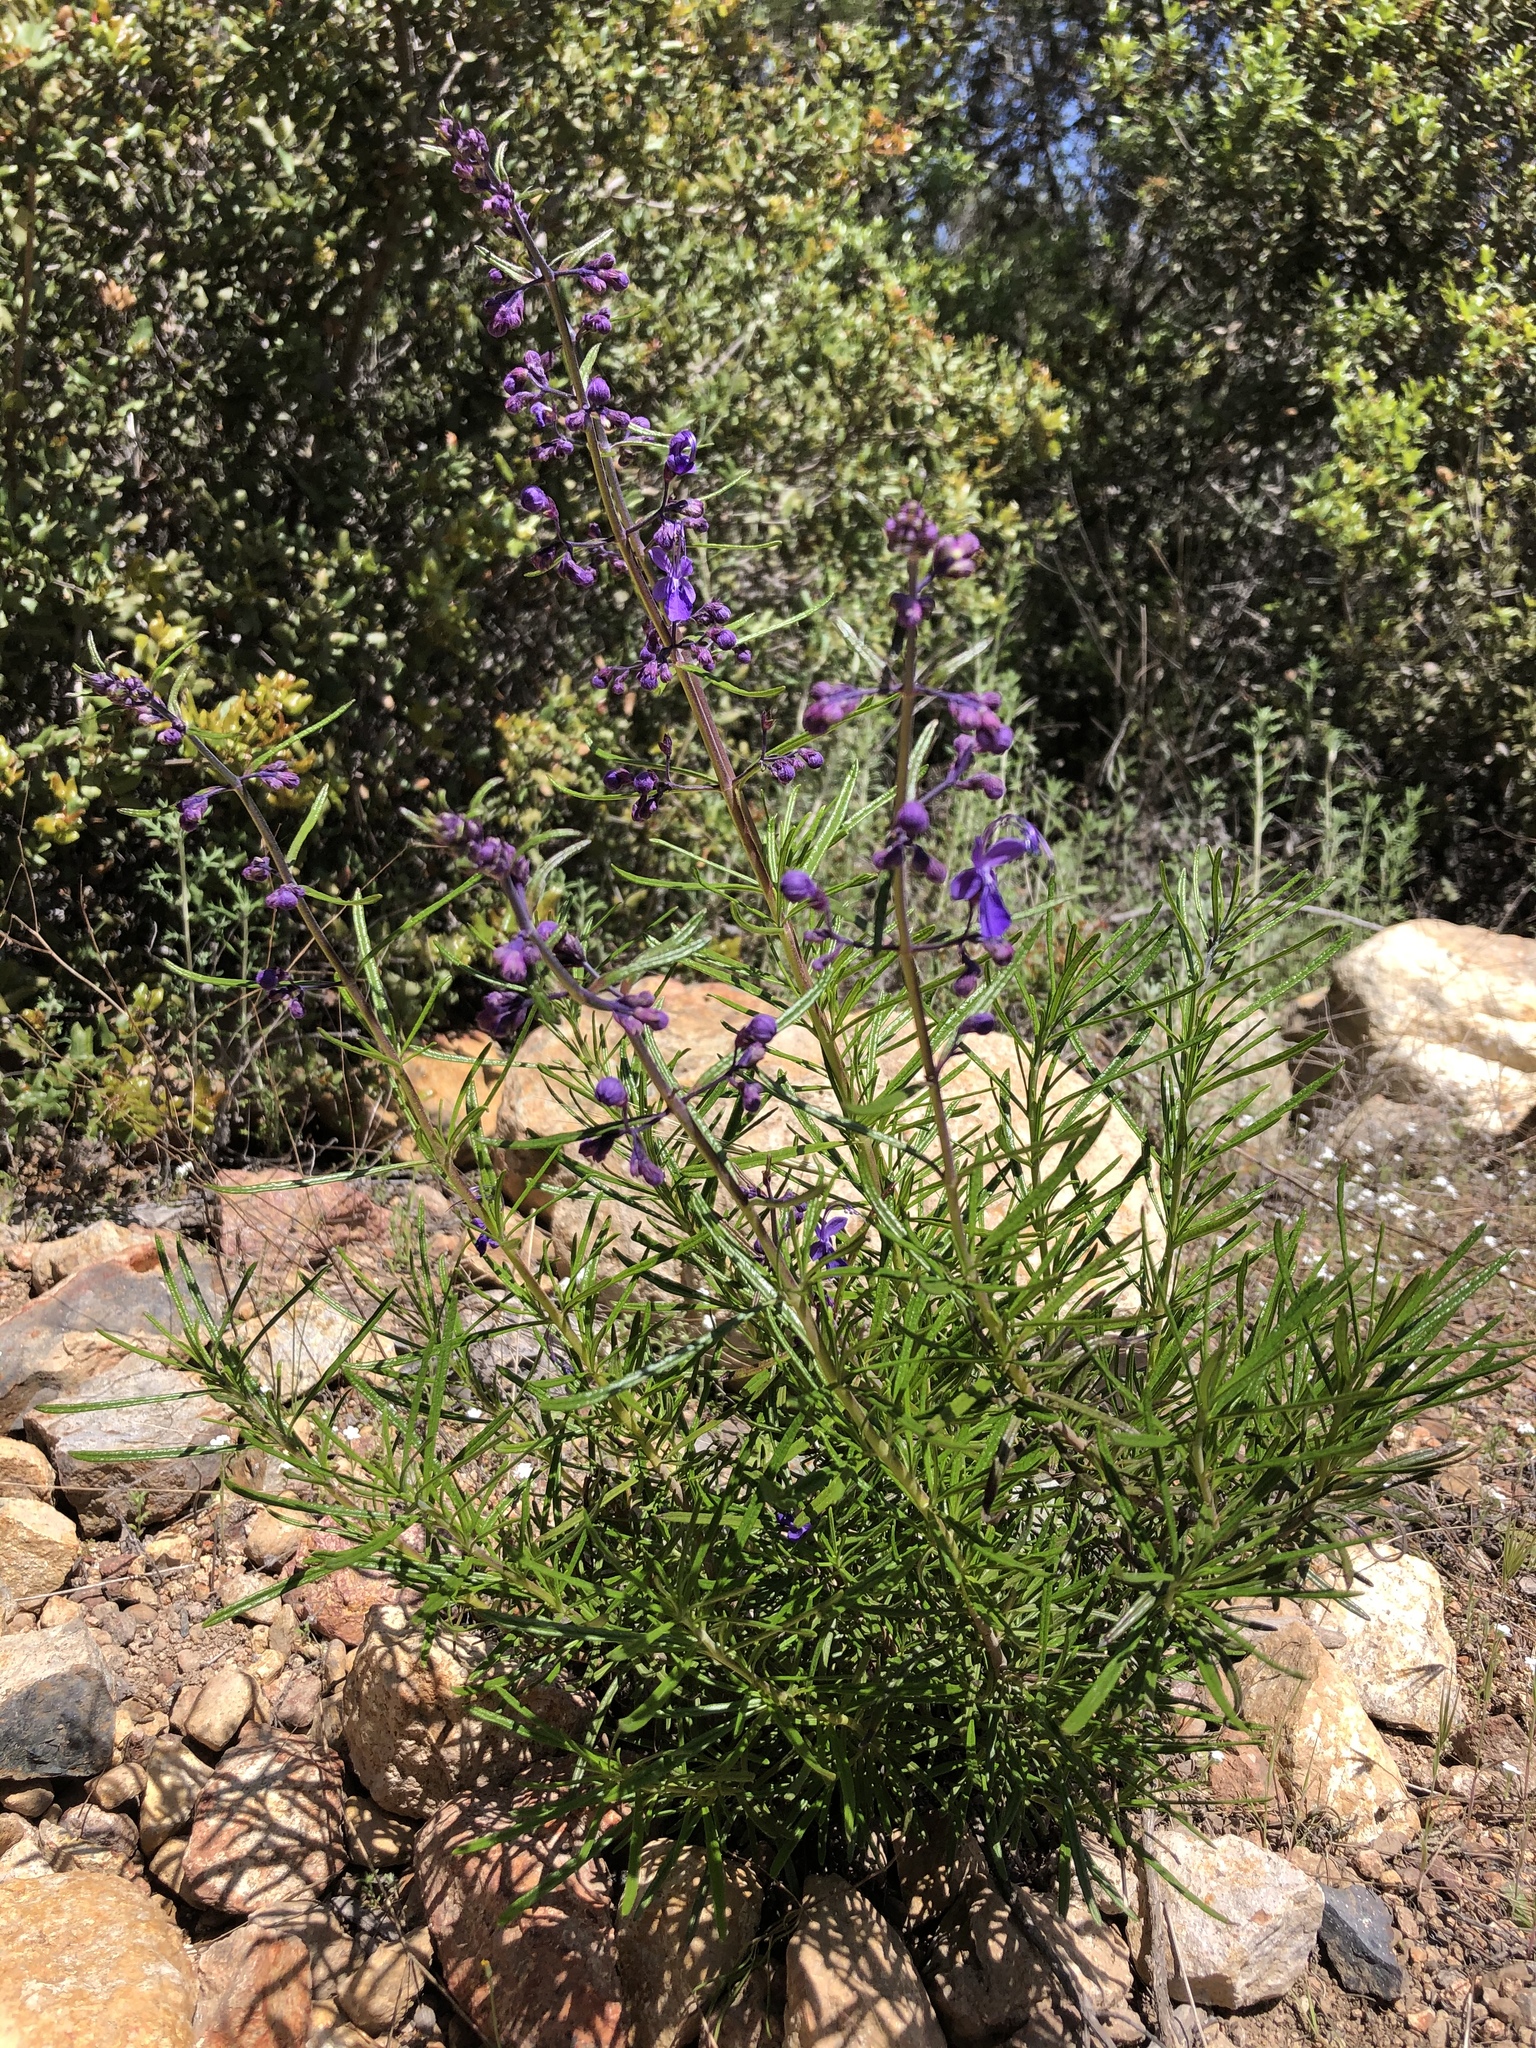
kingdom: Plantae
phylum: Tracheophyta
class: Magnoliopsida
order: Lamiales
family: Lamiaceae
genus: Trichostema
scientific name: Trichostema parishii
